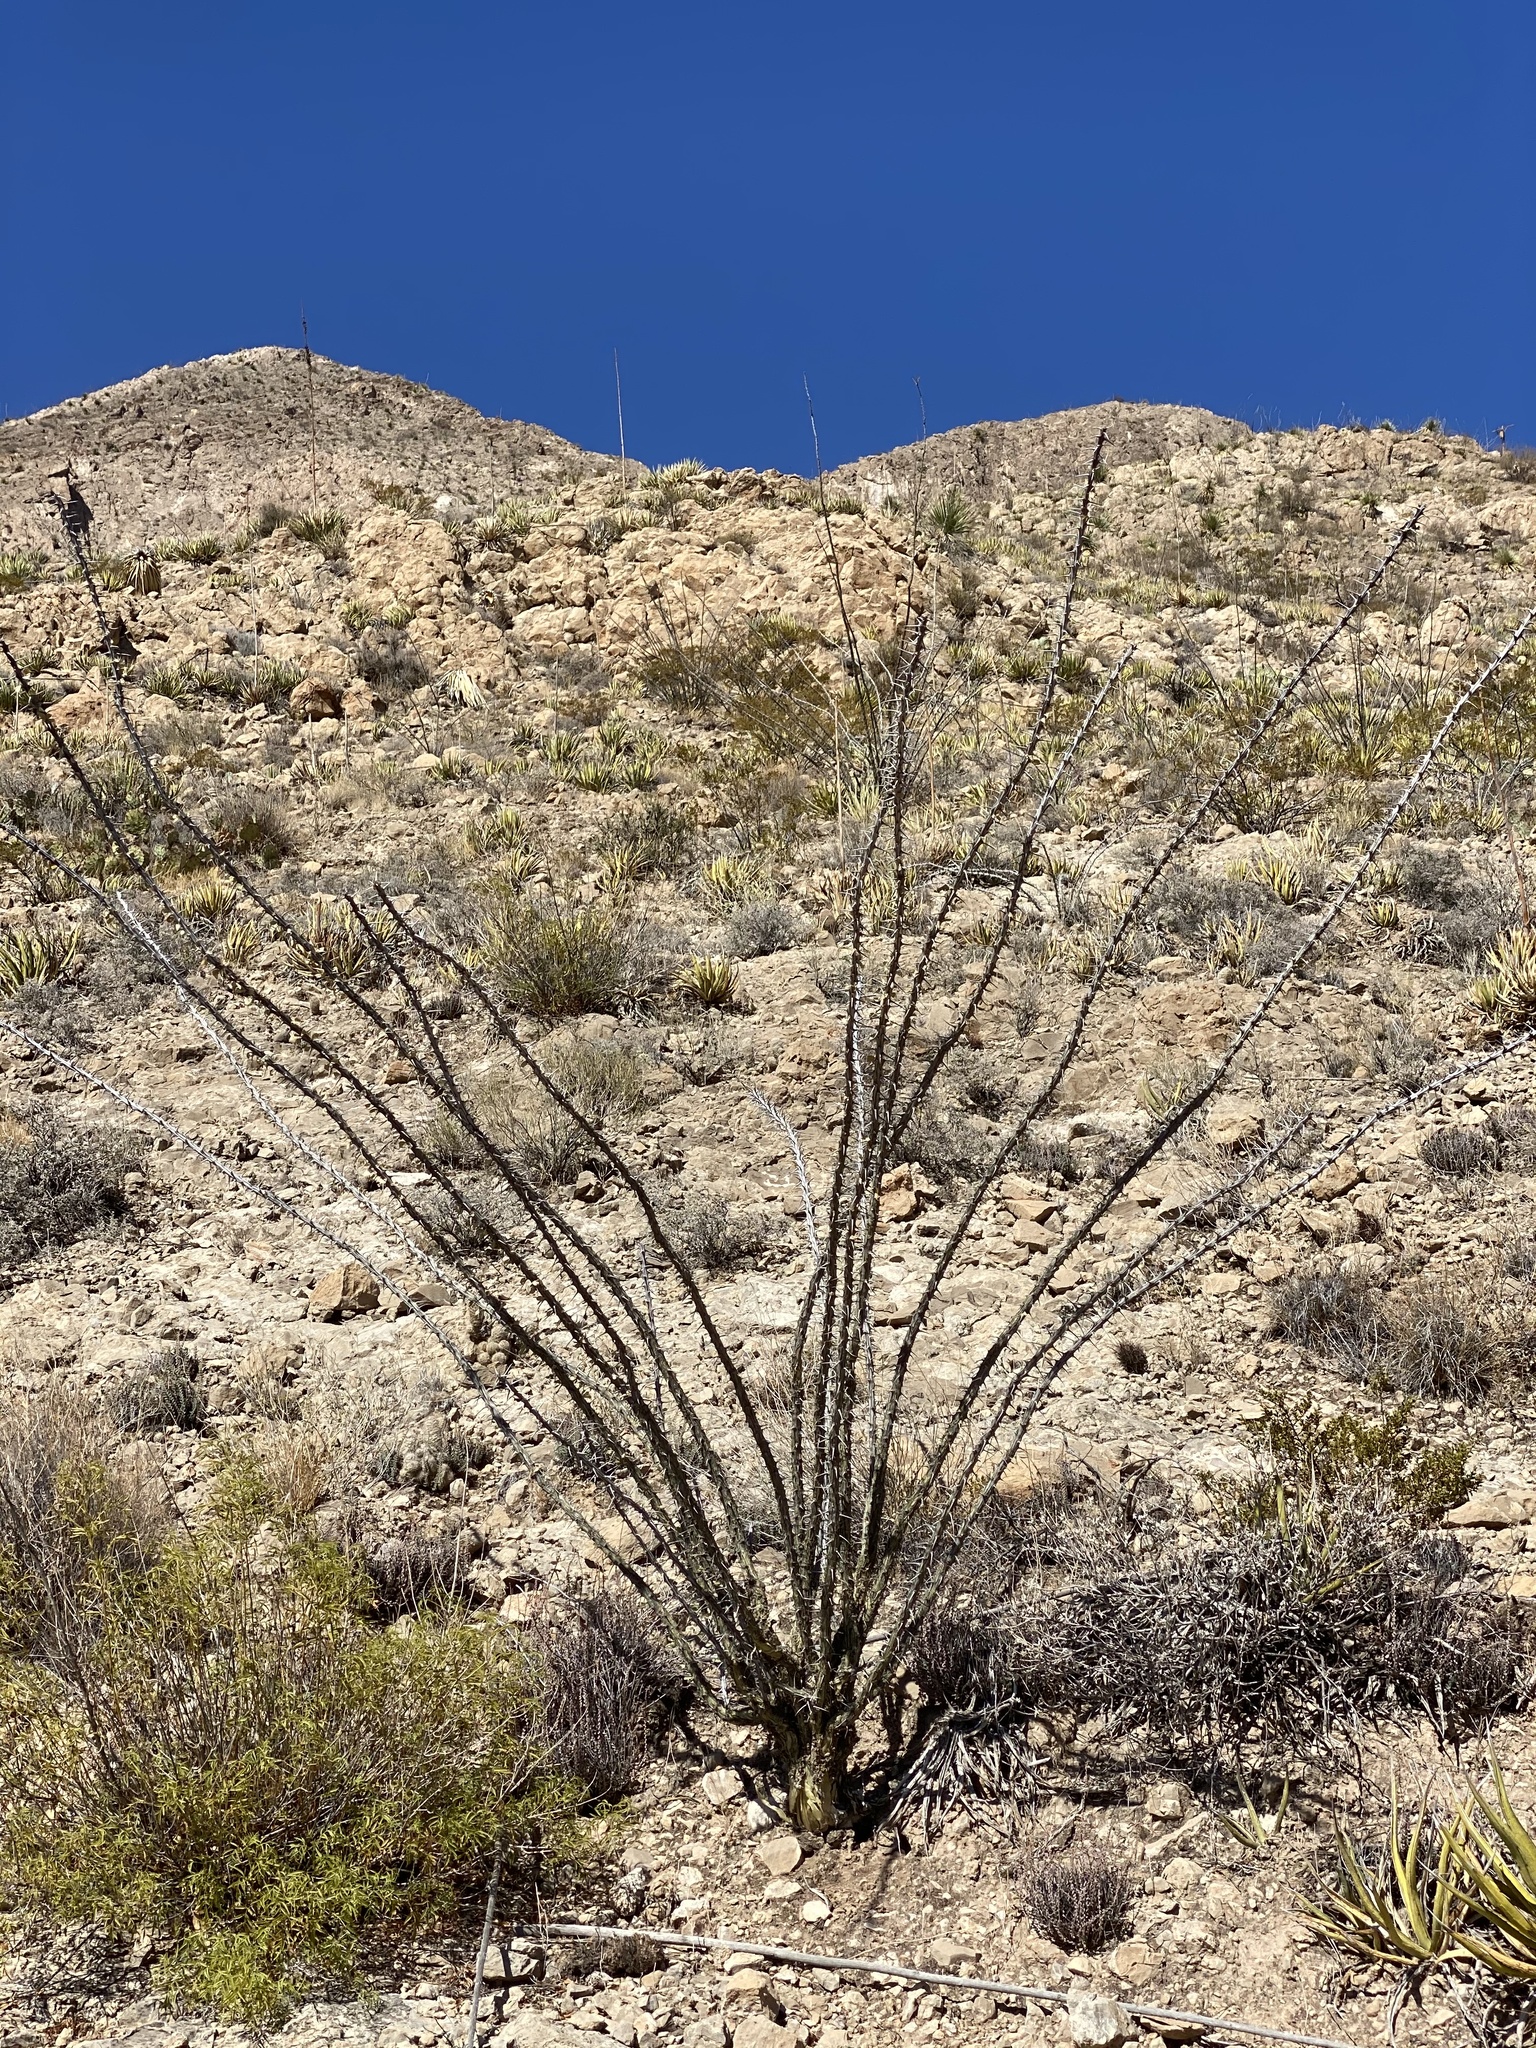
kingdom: Plantae
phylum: Tracheophyta
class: Magnoliopsida
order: Ericales
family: Fouquieriaceae
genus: Fouquieria
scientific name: Fouquieria splendens
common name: Vine-cactus
